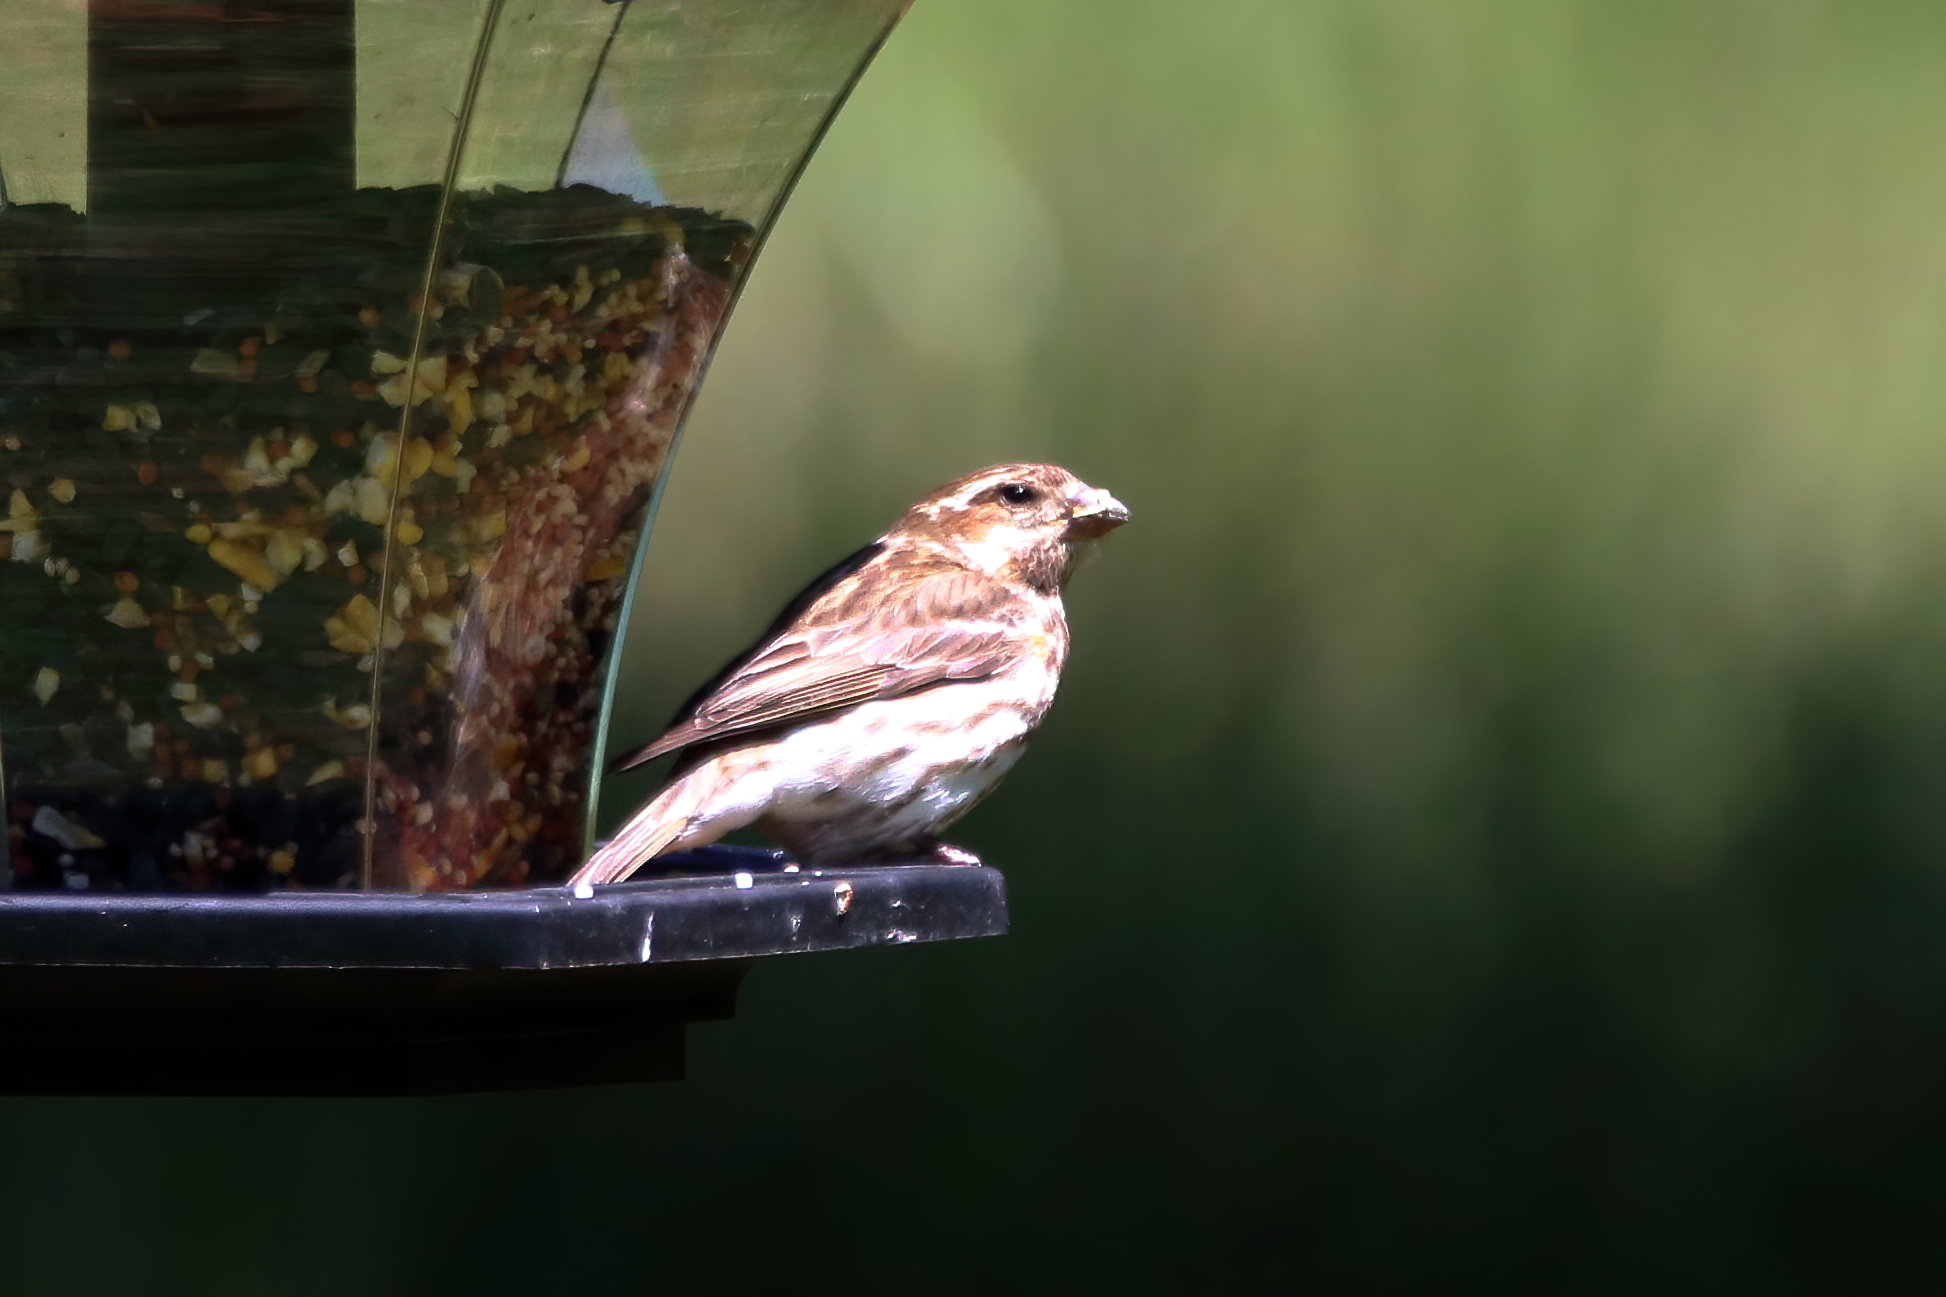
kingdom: Animalia
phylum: Chordata
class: Aves
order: Passeriformes
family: Fringillidae
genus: Haemorhous
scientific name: Haemorhous purpureus
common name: Purple finch
